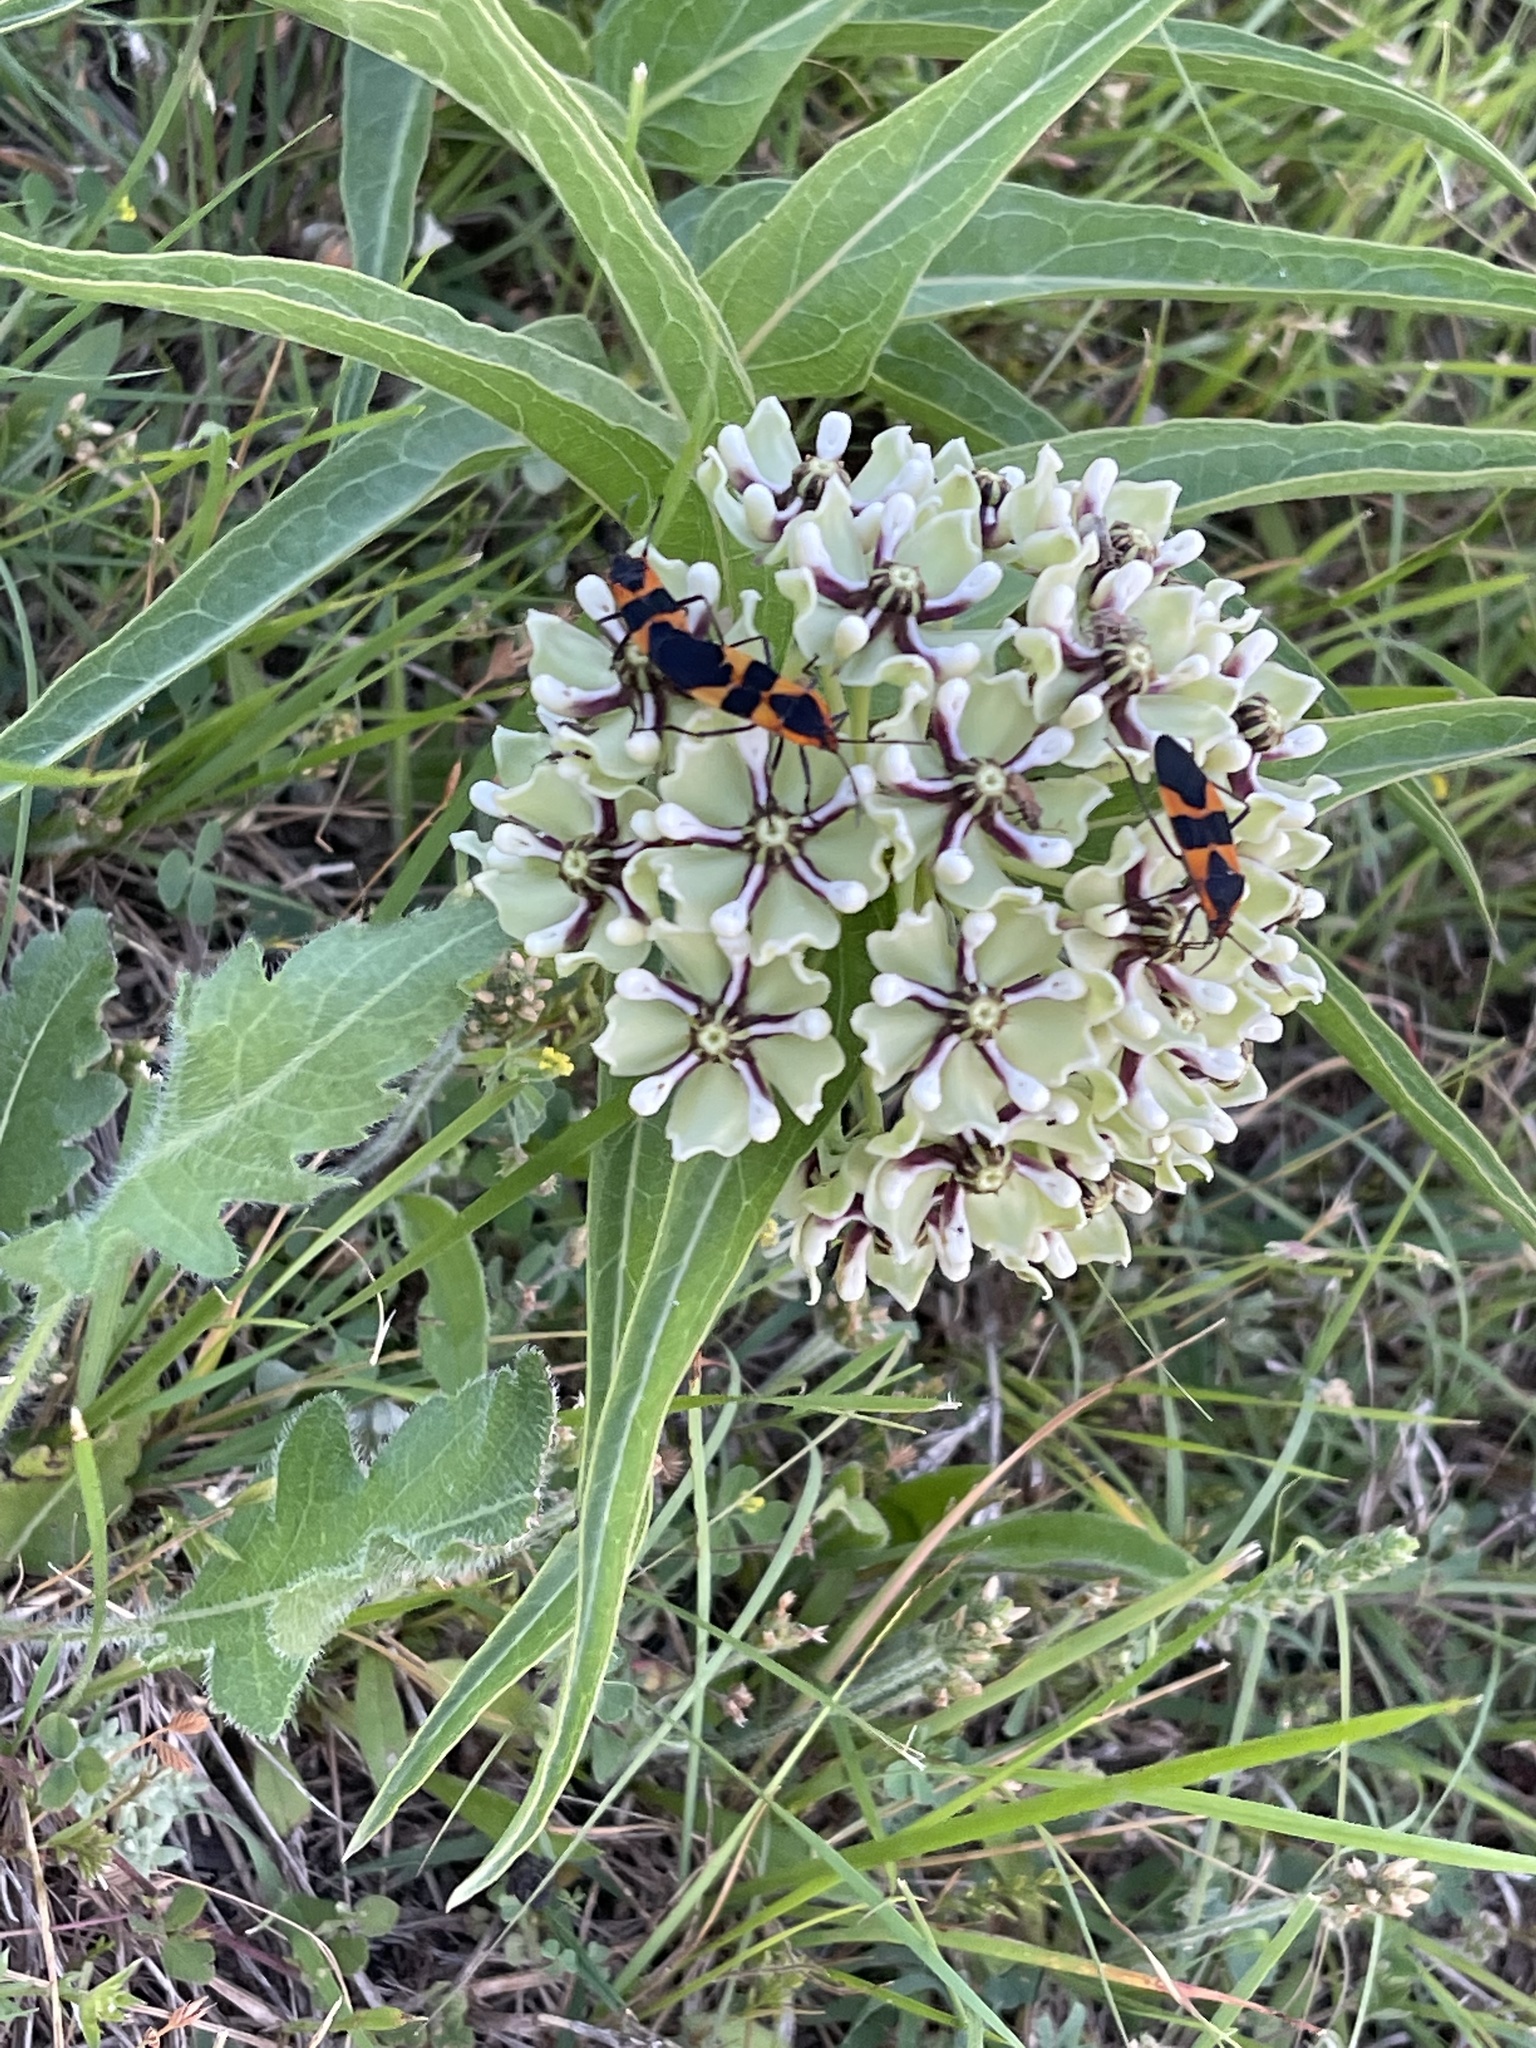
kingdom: Plantae
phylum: Tracheophyta
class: Magnoliopsida
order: Gentianales
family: Apocynaceae
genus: Asclepias
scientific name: Asclepias asperula
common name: Antelope horns
